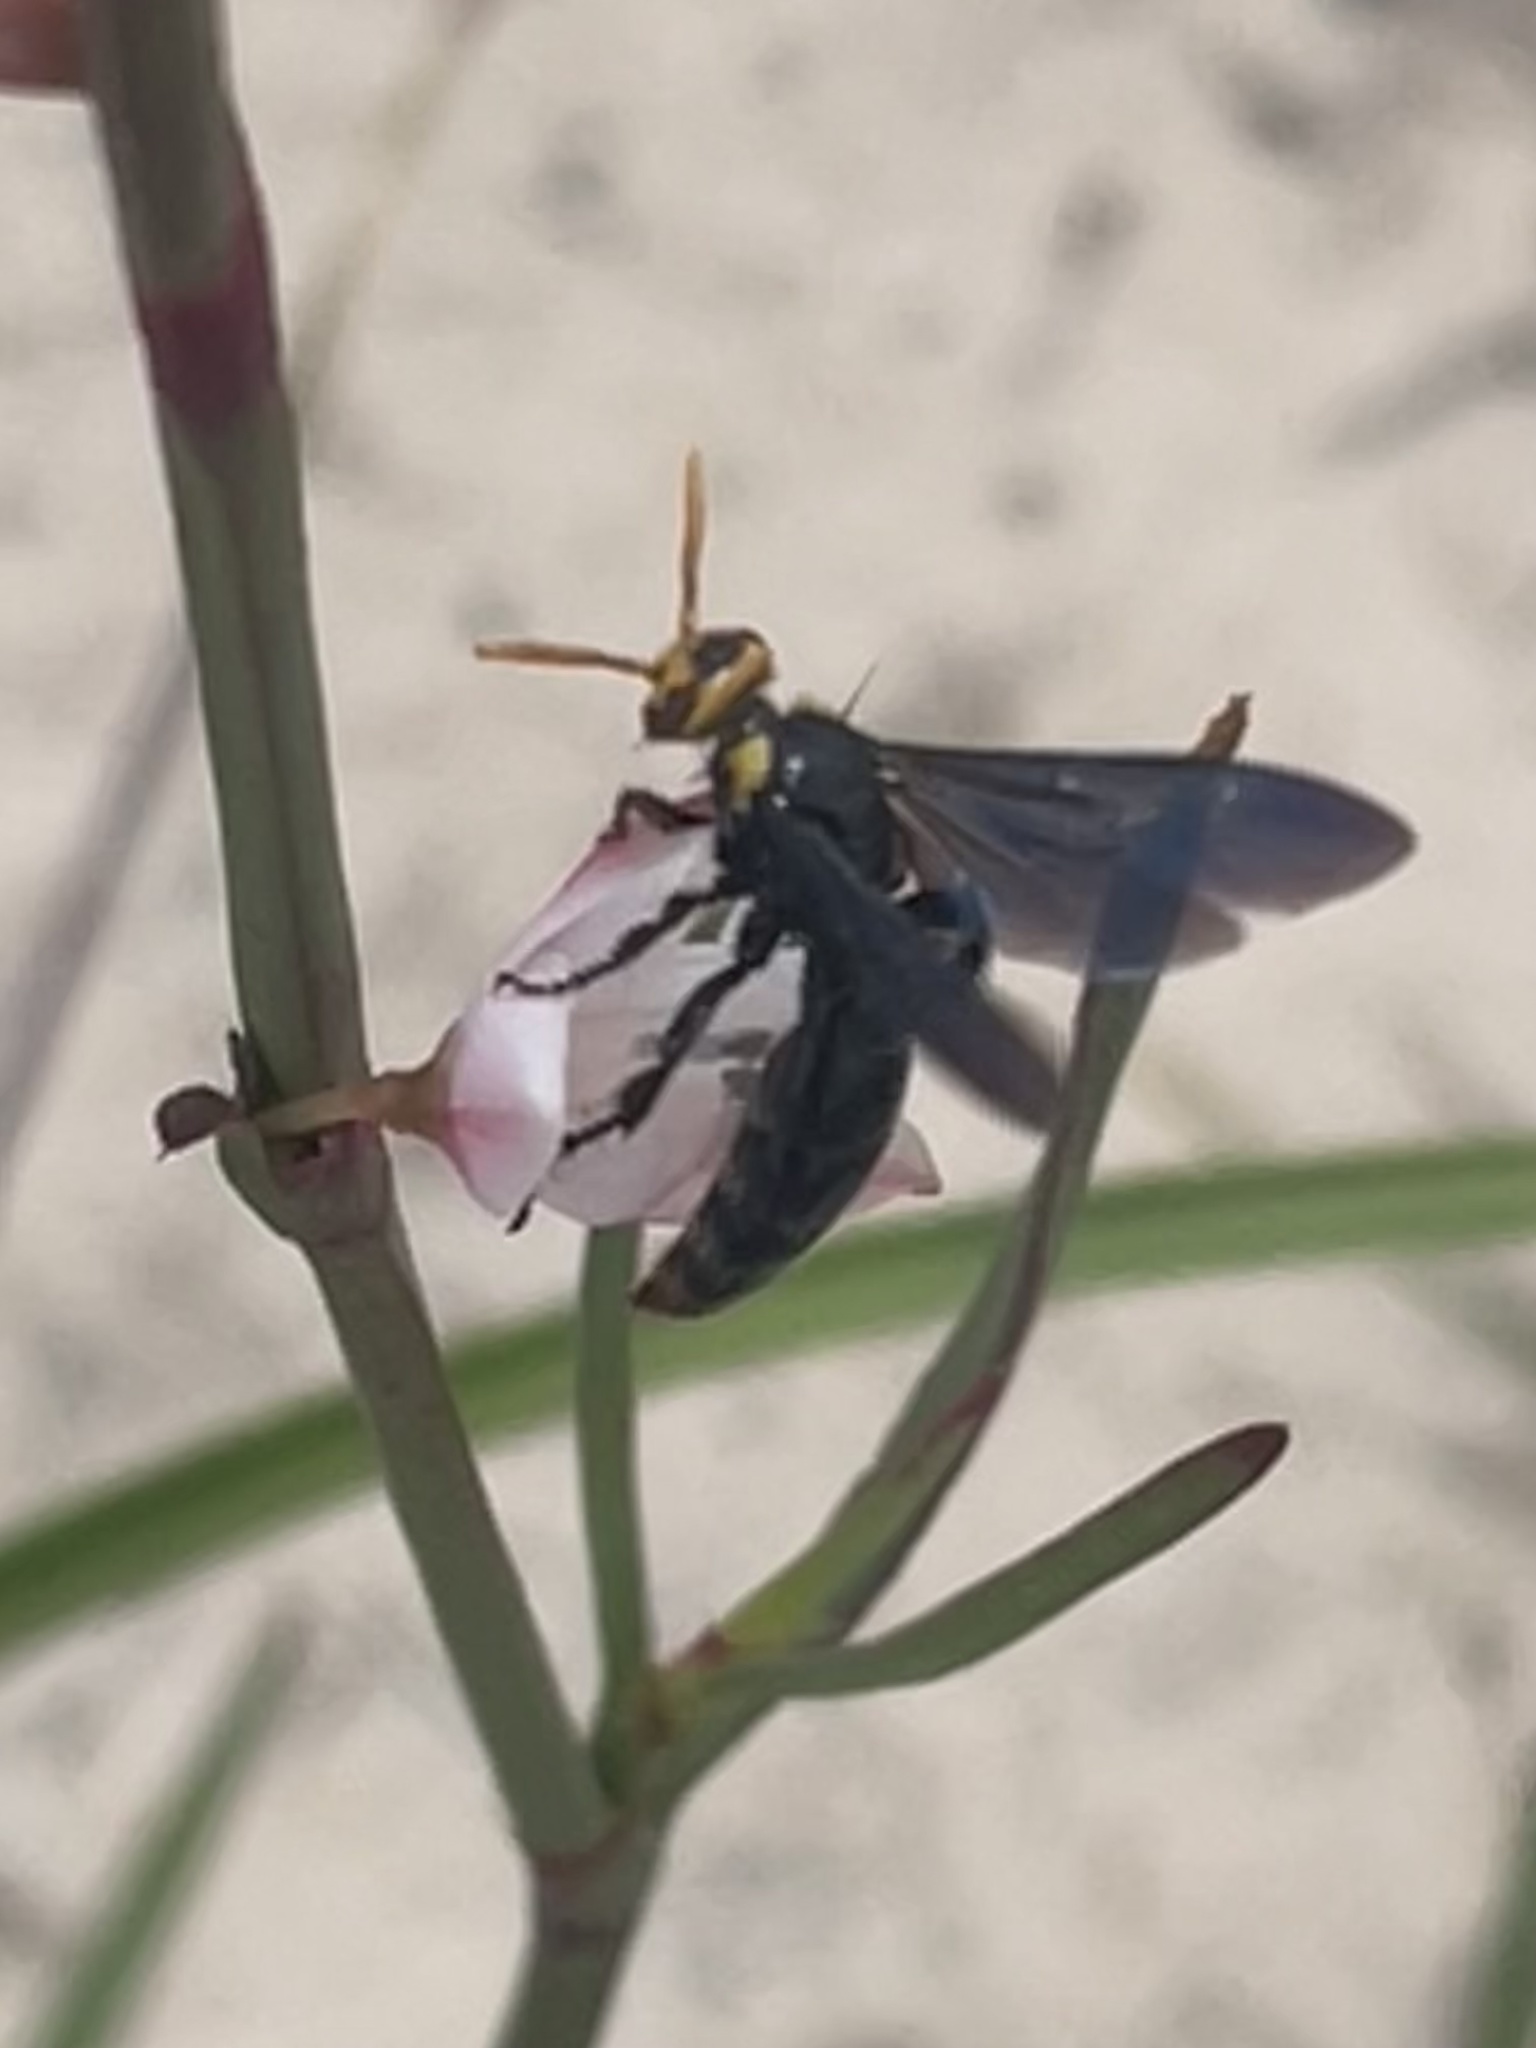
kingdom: Animalia
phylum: Arthropoda
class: Insecta
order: Hymenoptera
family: Scoliidae
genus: Scolia
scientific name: Scolia
